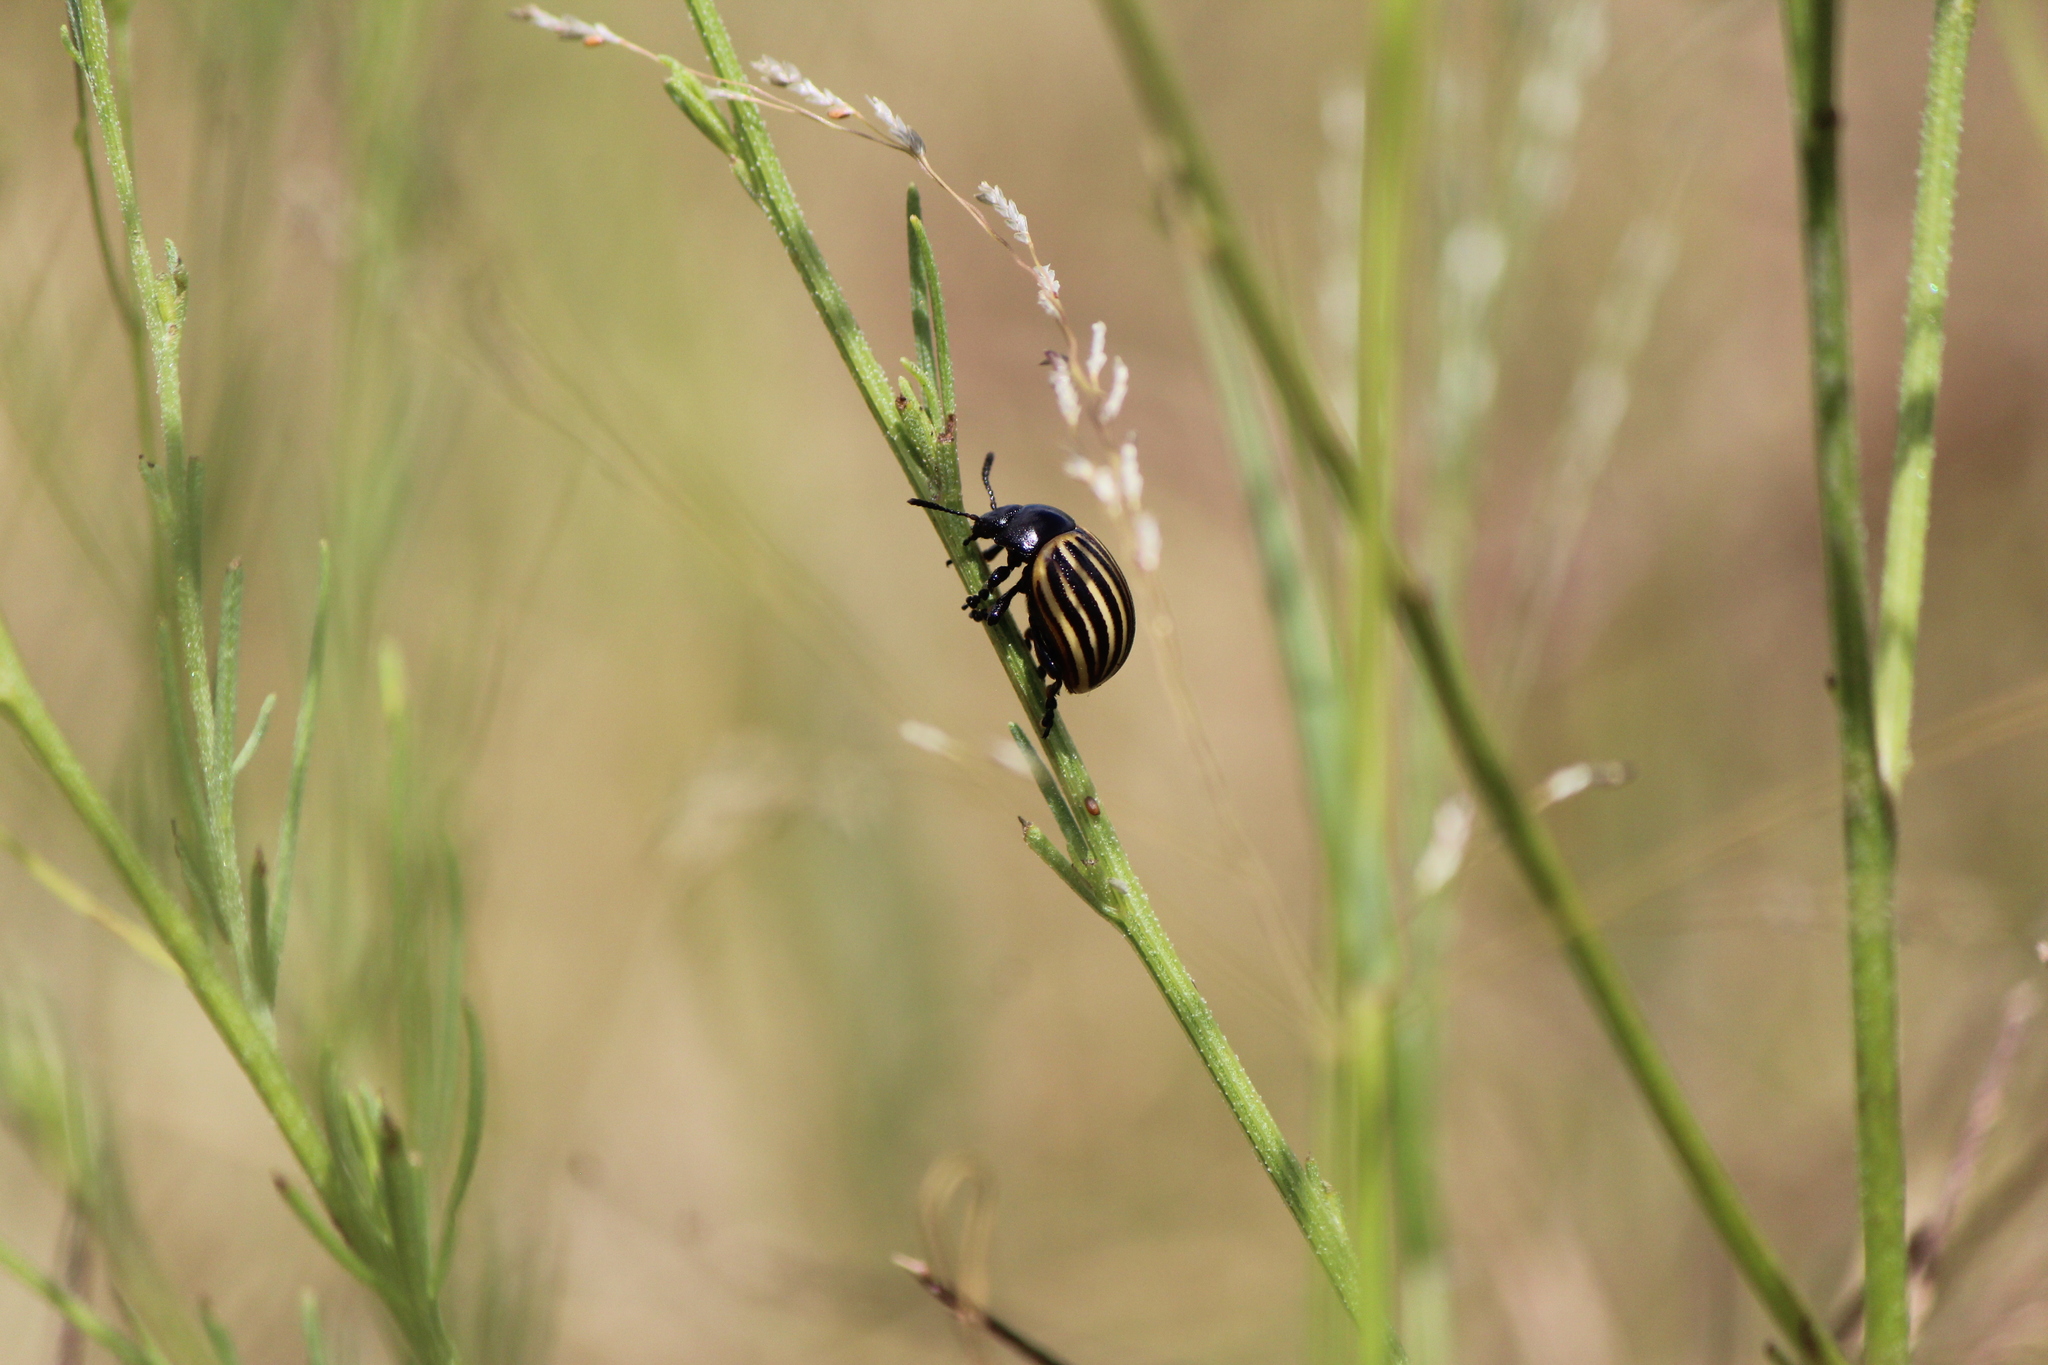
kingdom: Animalia
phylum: Arthropoda
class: Insecta
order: Coleoptera
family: Chrysomelidae
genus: Leptinotarsa
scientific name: Leptinotarsa
